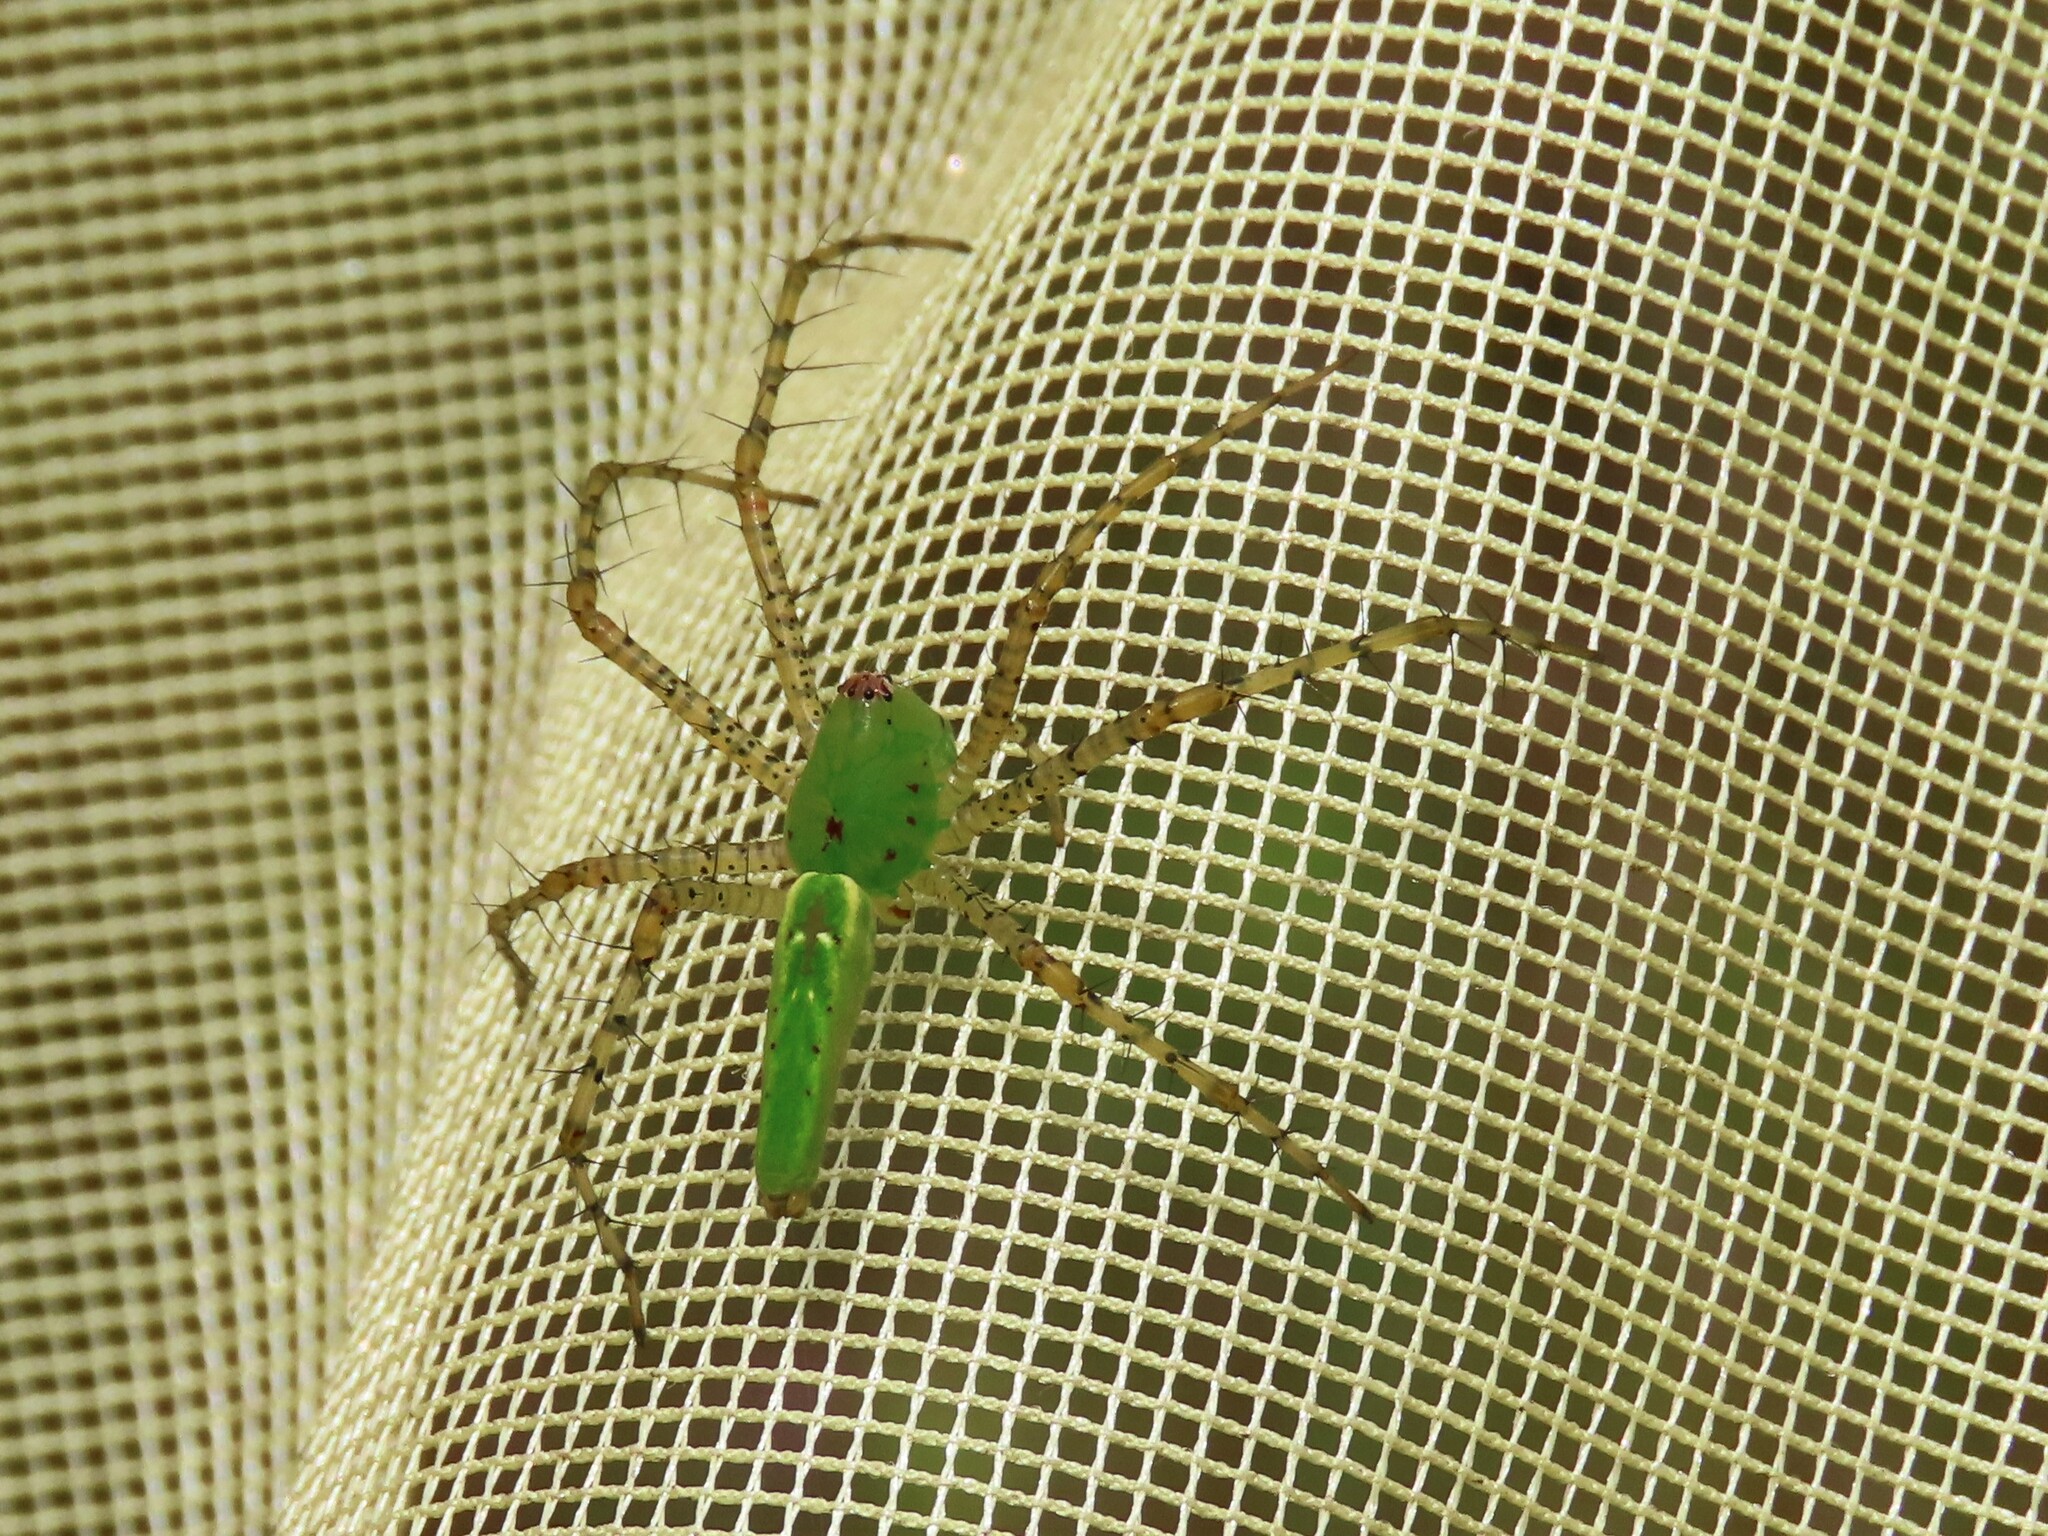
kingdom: Animalia
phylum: Arthropoda
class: Arachnida
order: Araneae
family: Oxyopidae
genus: Peucetia
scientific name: Peucetia viridans
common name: Lynx spiders
